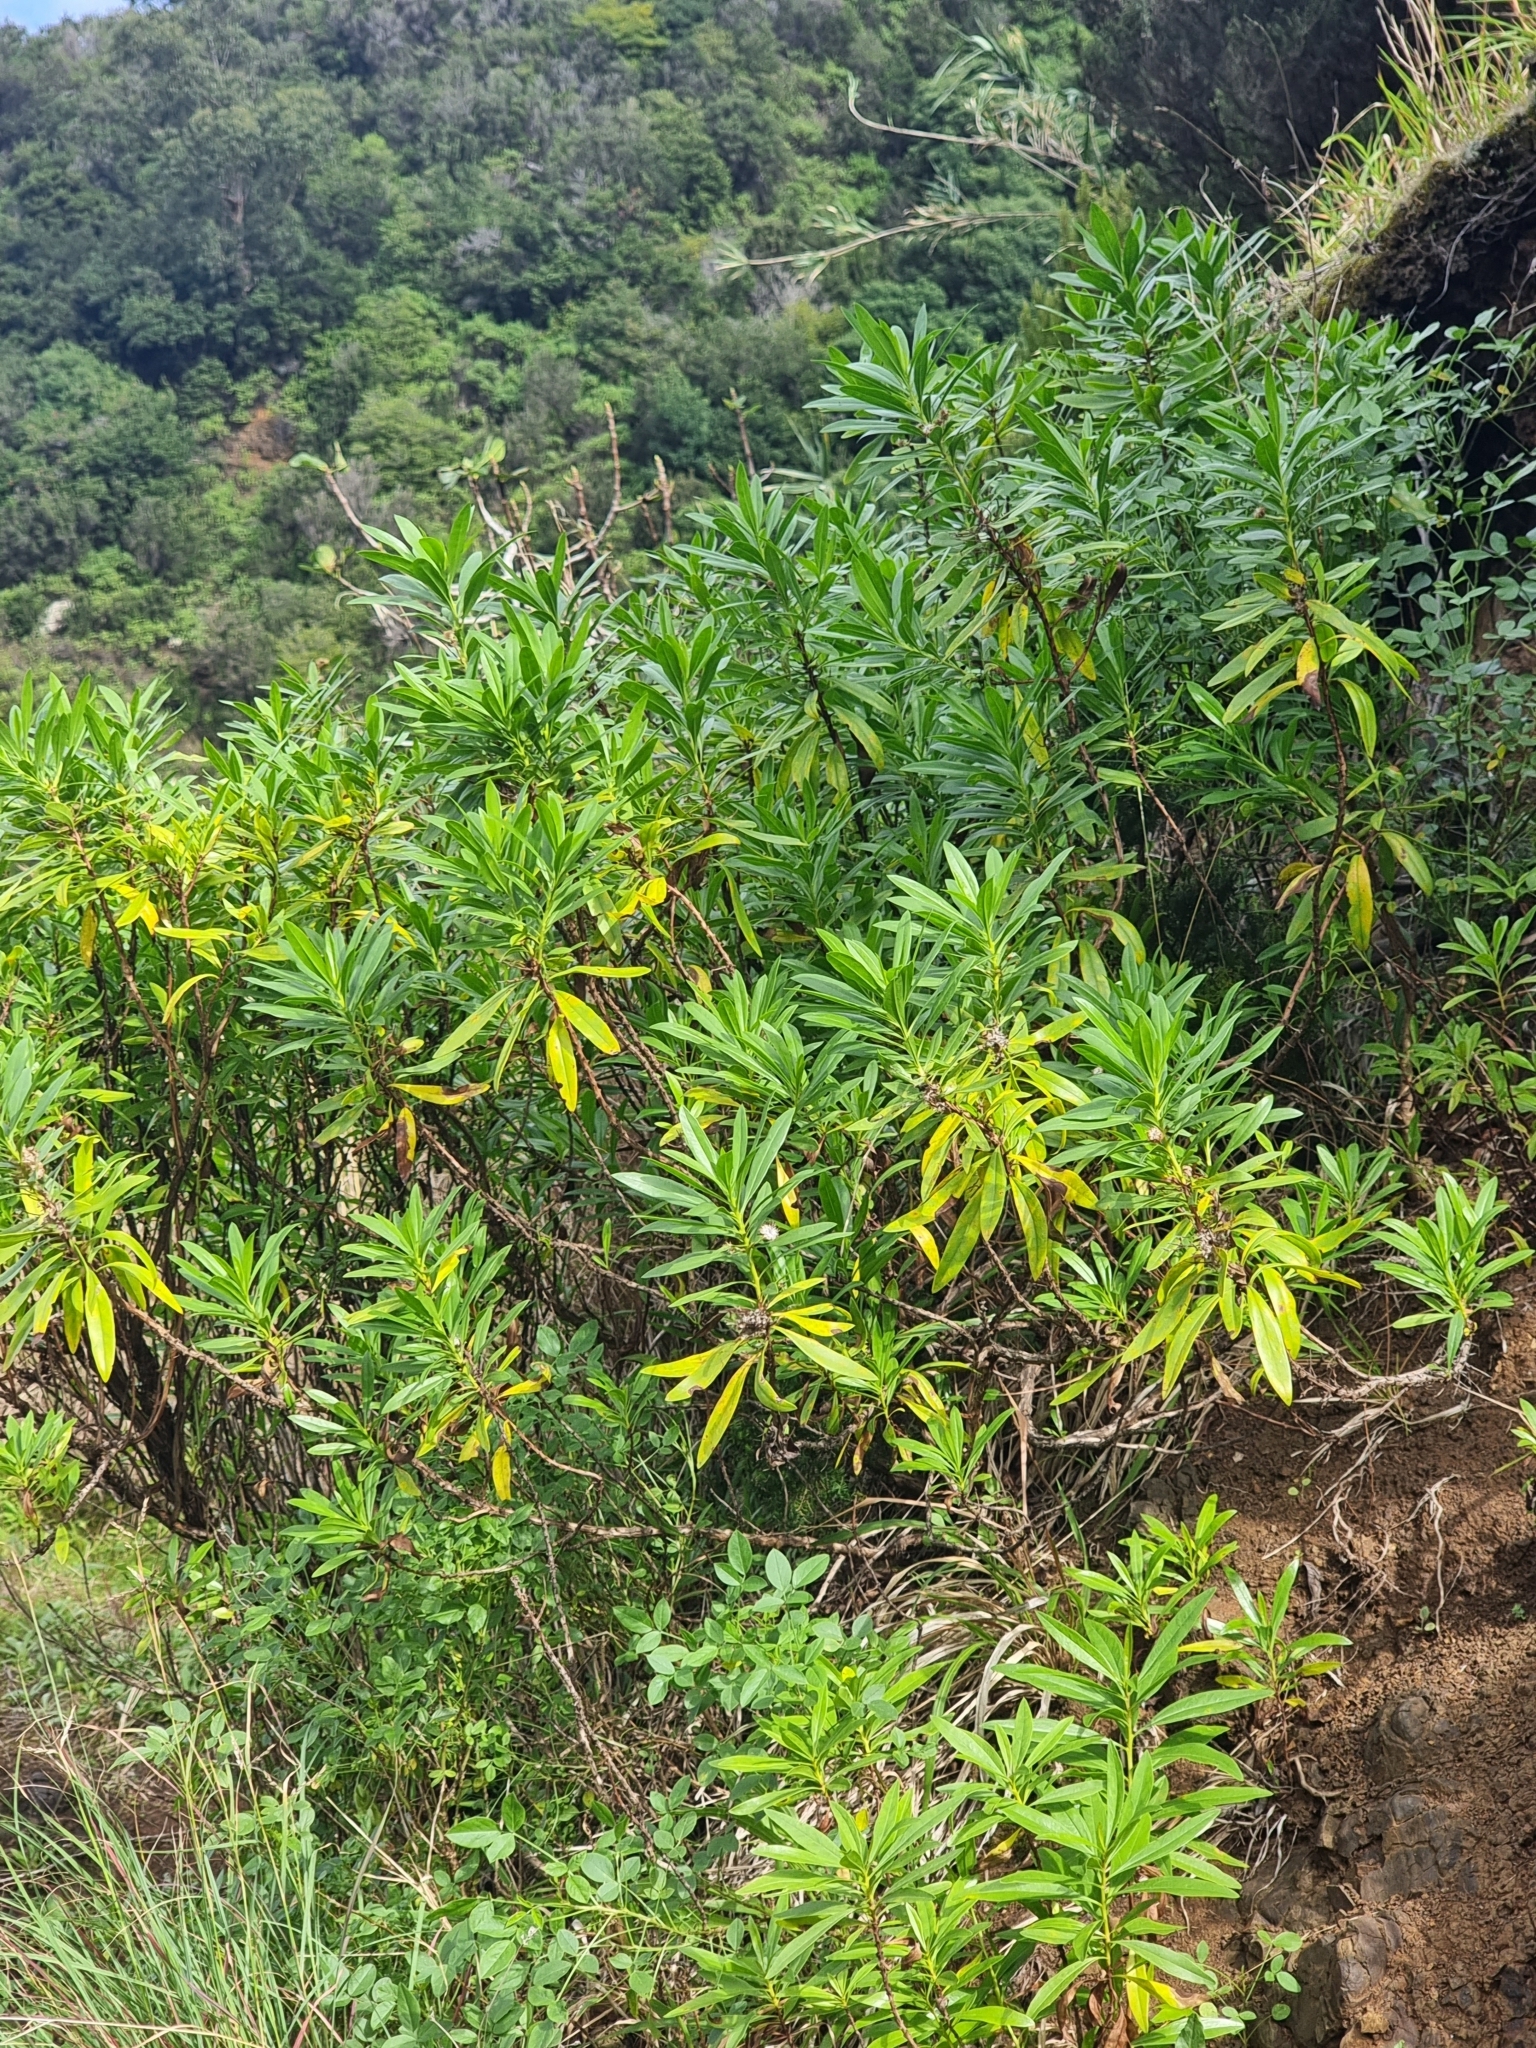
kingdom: Plantae
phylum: Tracheophyta
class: Magnoliopsida
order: Lamiales
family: Plantaginaceae
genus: Globularia
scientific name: Globularia salicina
